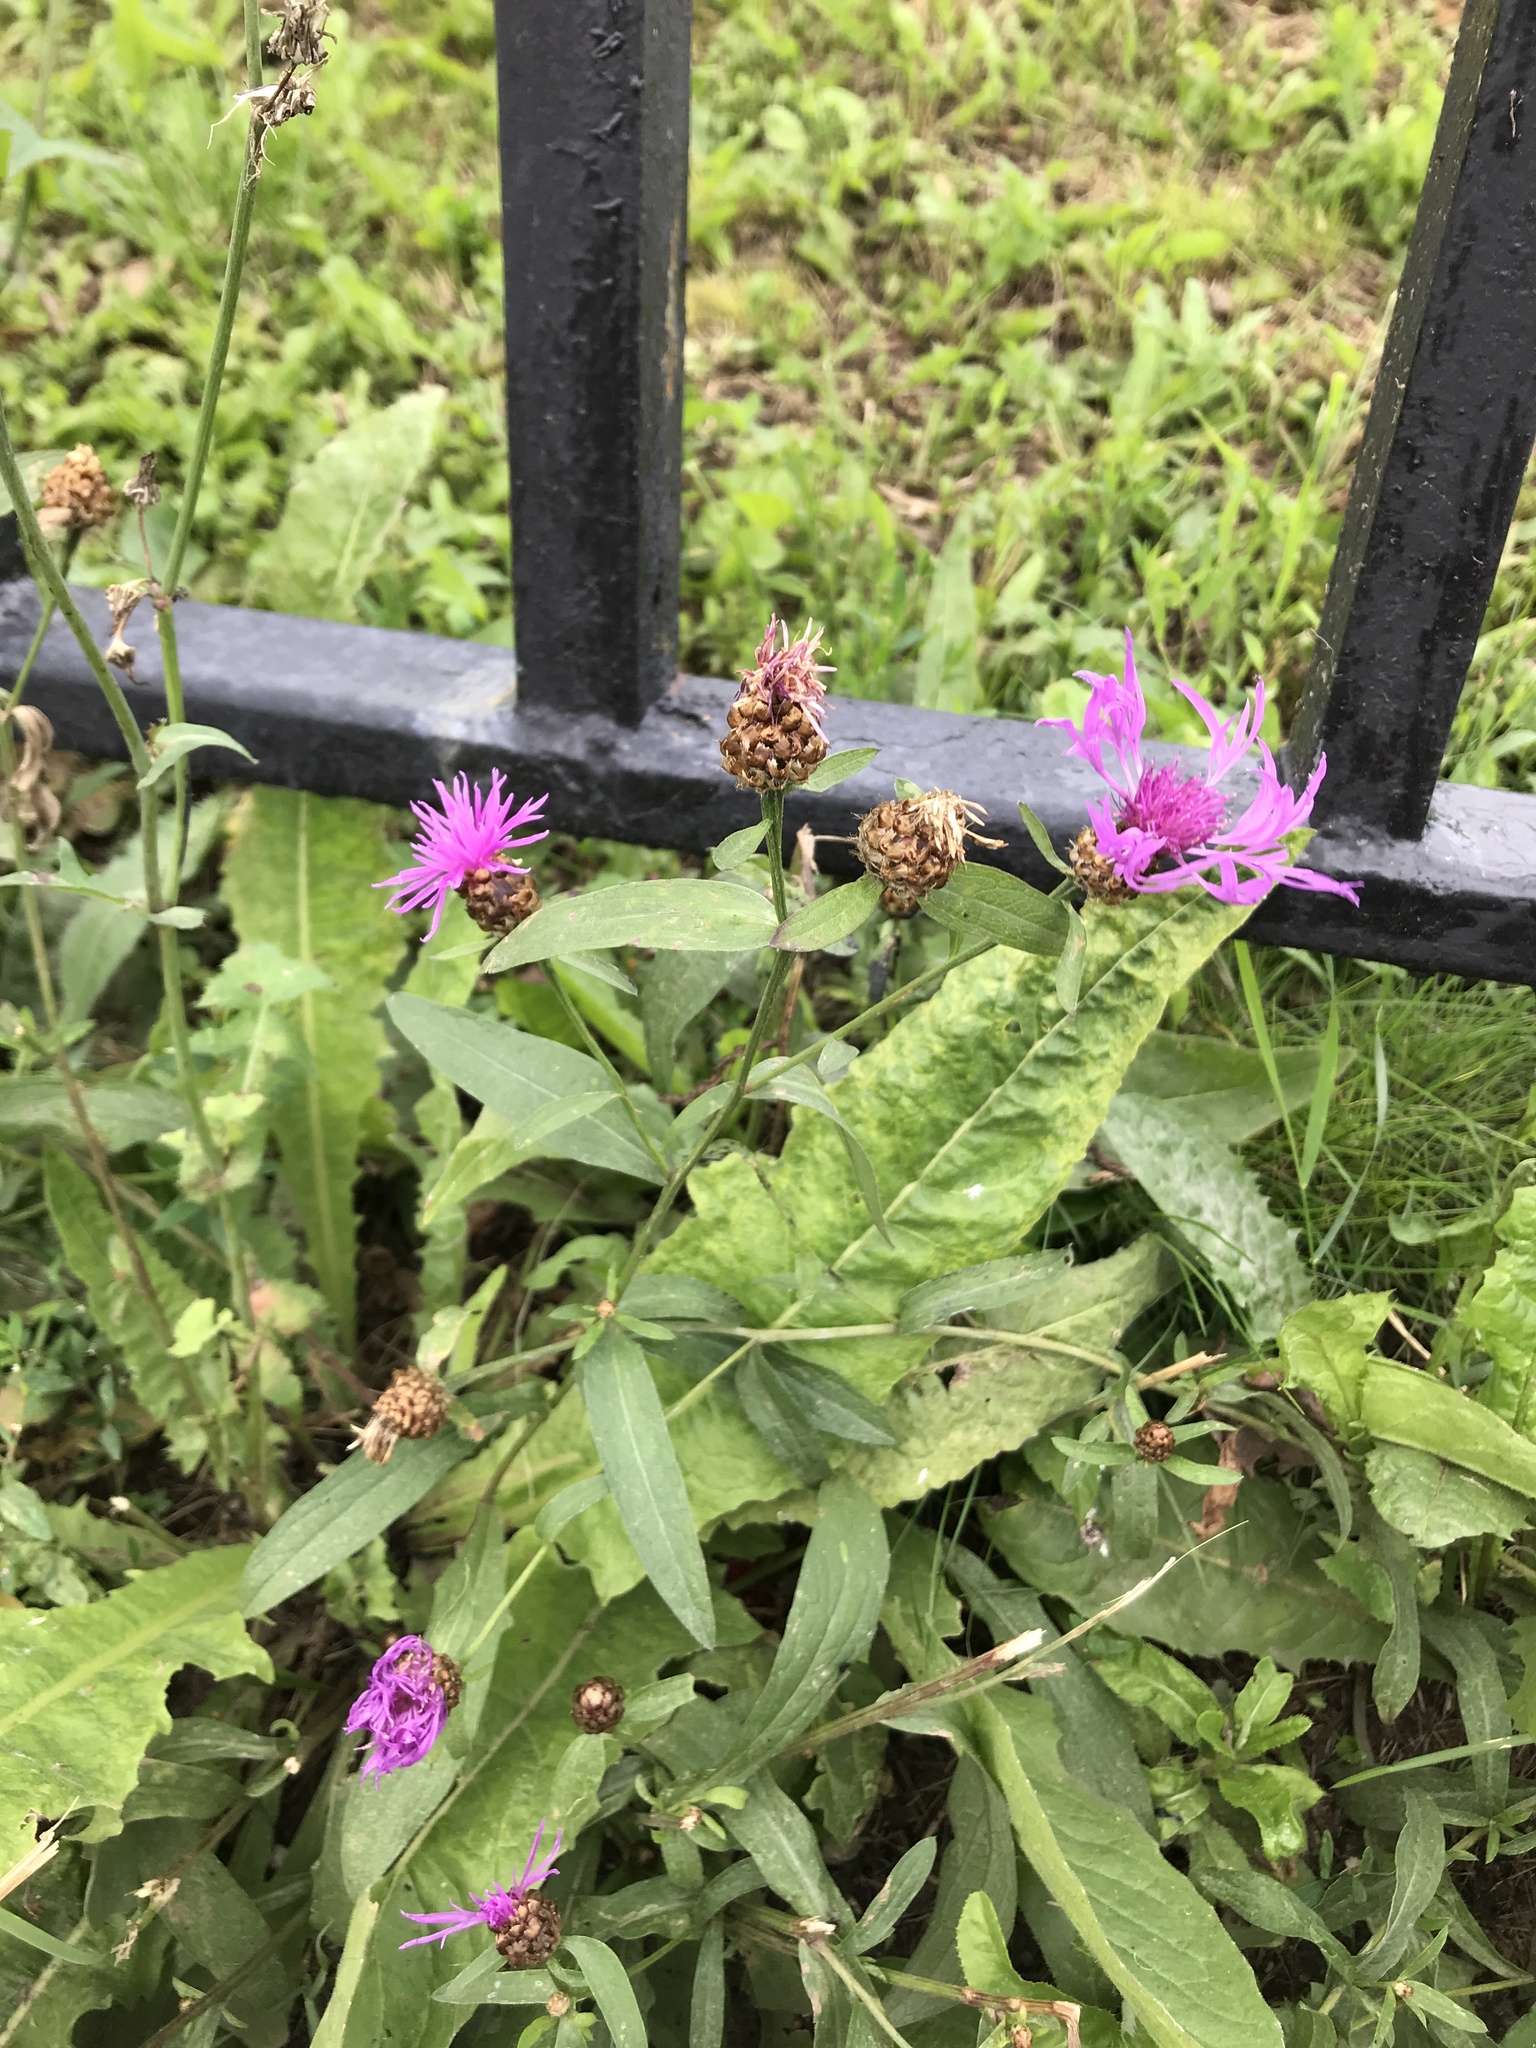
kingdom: Plantae
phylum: Tracheophyta
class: Magnoliopsida
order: Asterales
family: Asteraceae
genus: Centaurea
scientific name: Centaurea jacea
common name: Brown knapweed
